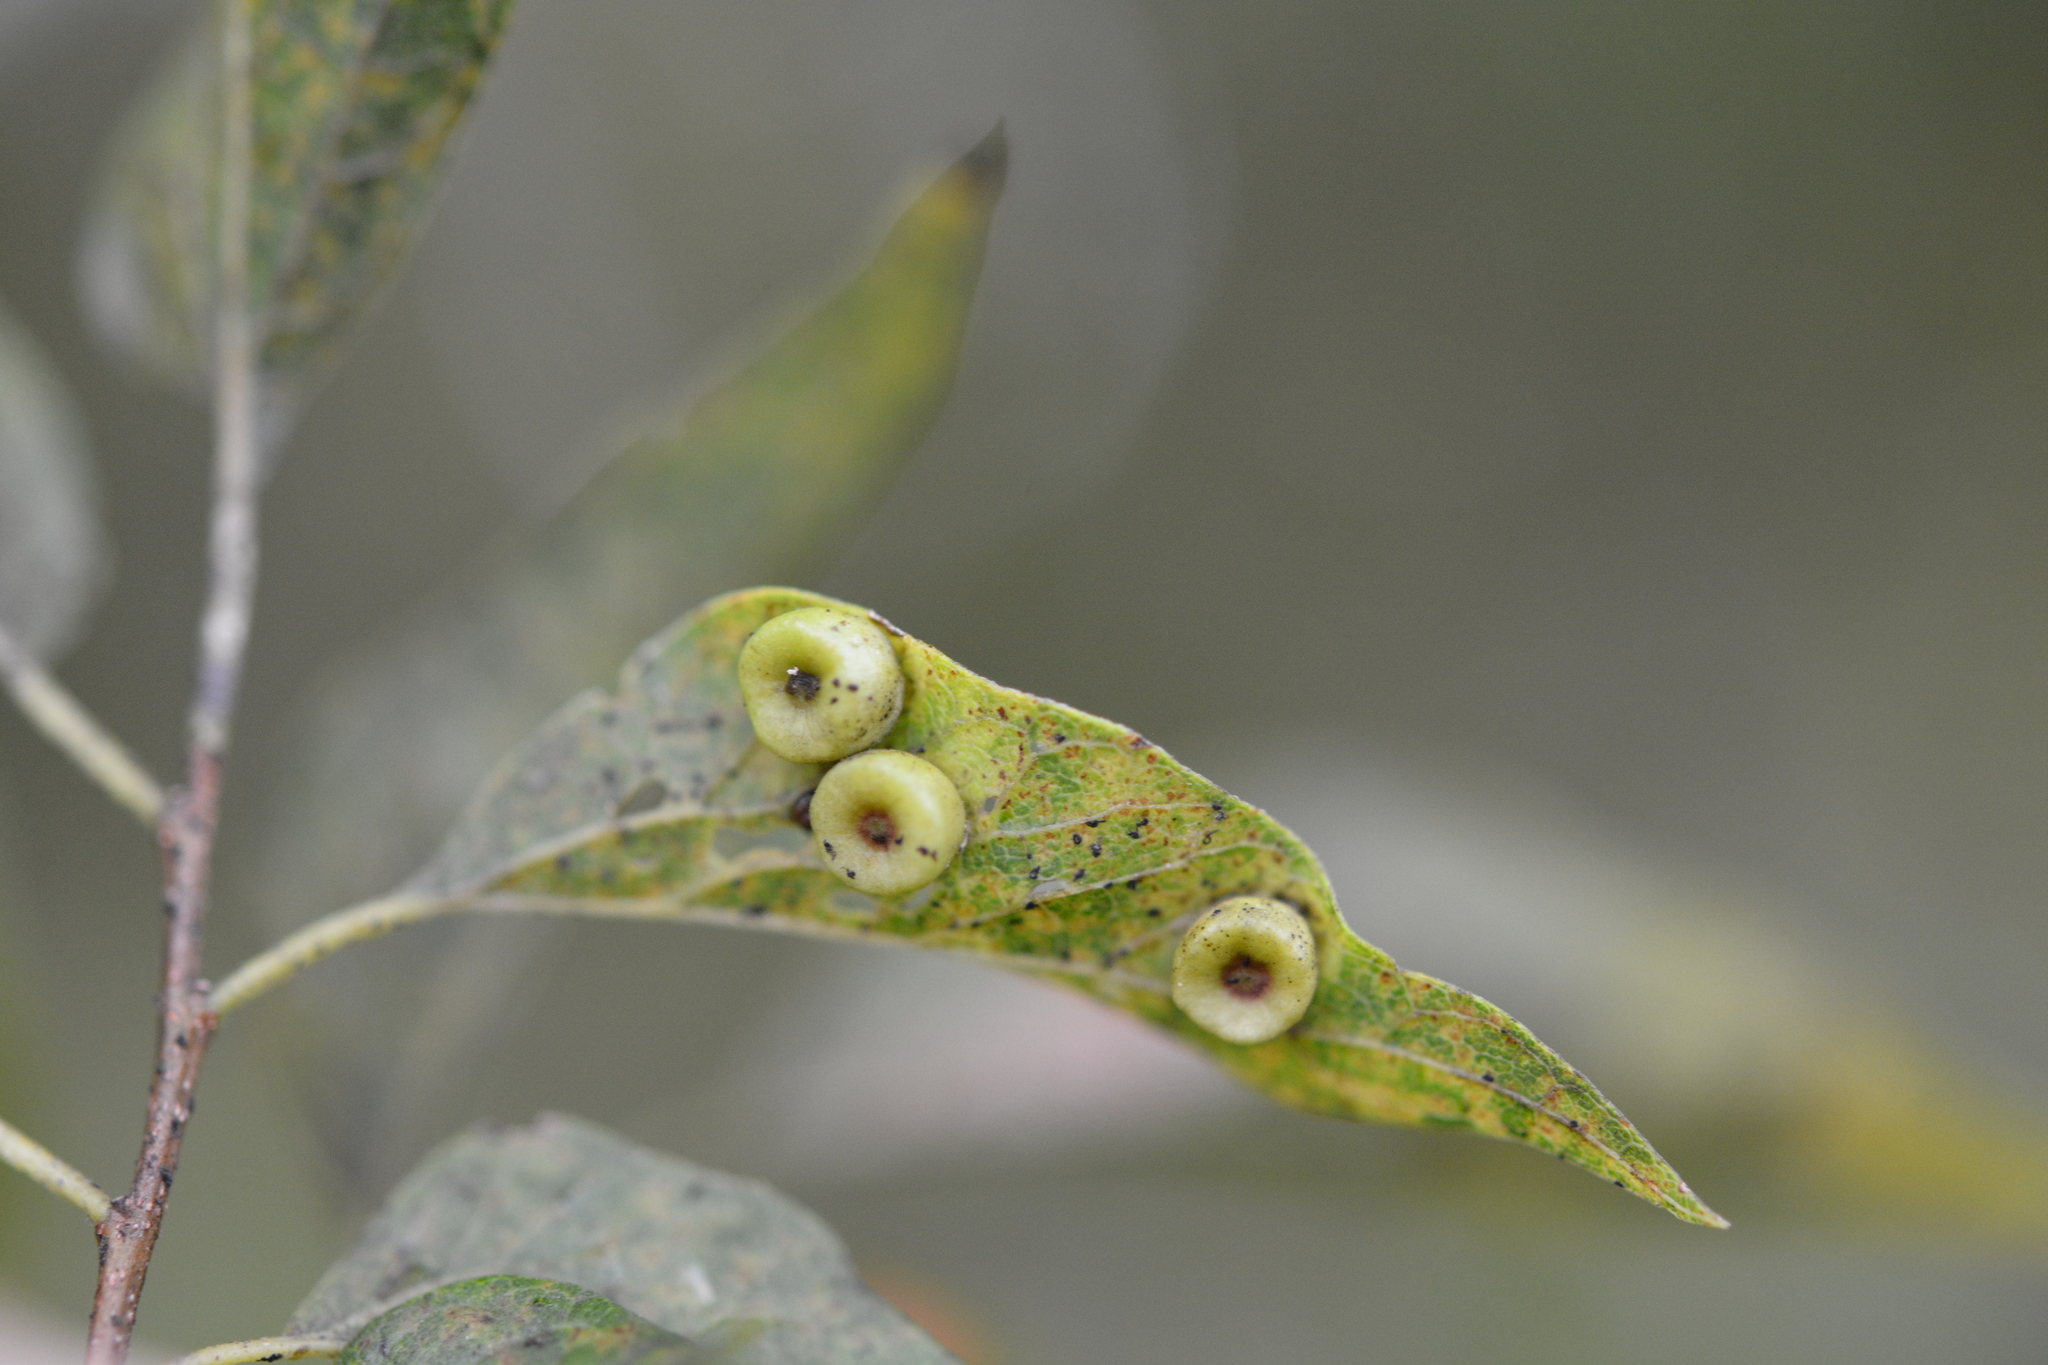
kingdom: Animalia
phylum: Arthropoda
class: Insecta
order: Hemiptera
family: Aphalaridae
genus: Pachypsylla
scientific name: Pachypsylla celtidismamma
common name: Hackberry nipplegall psyllid
